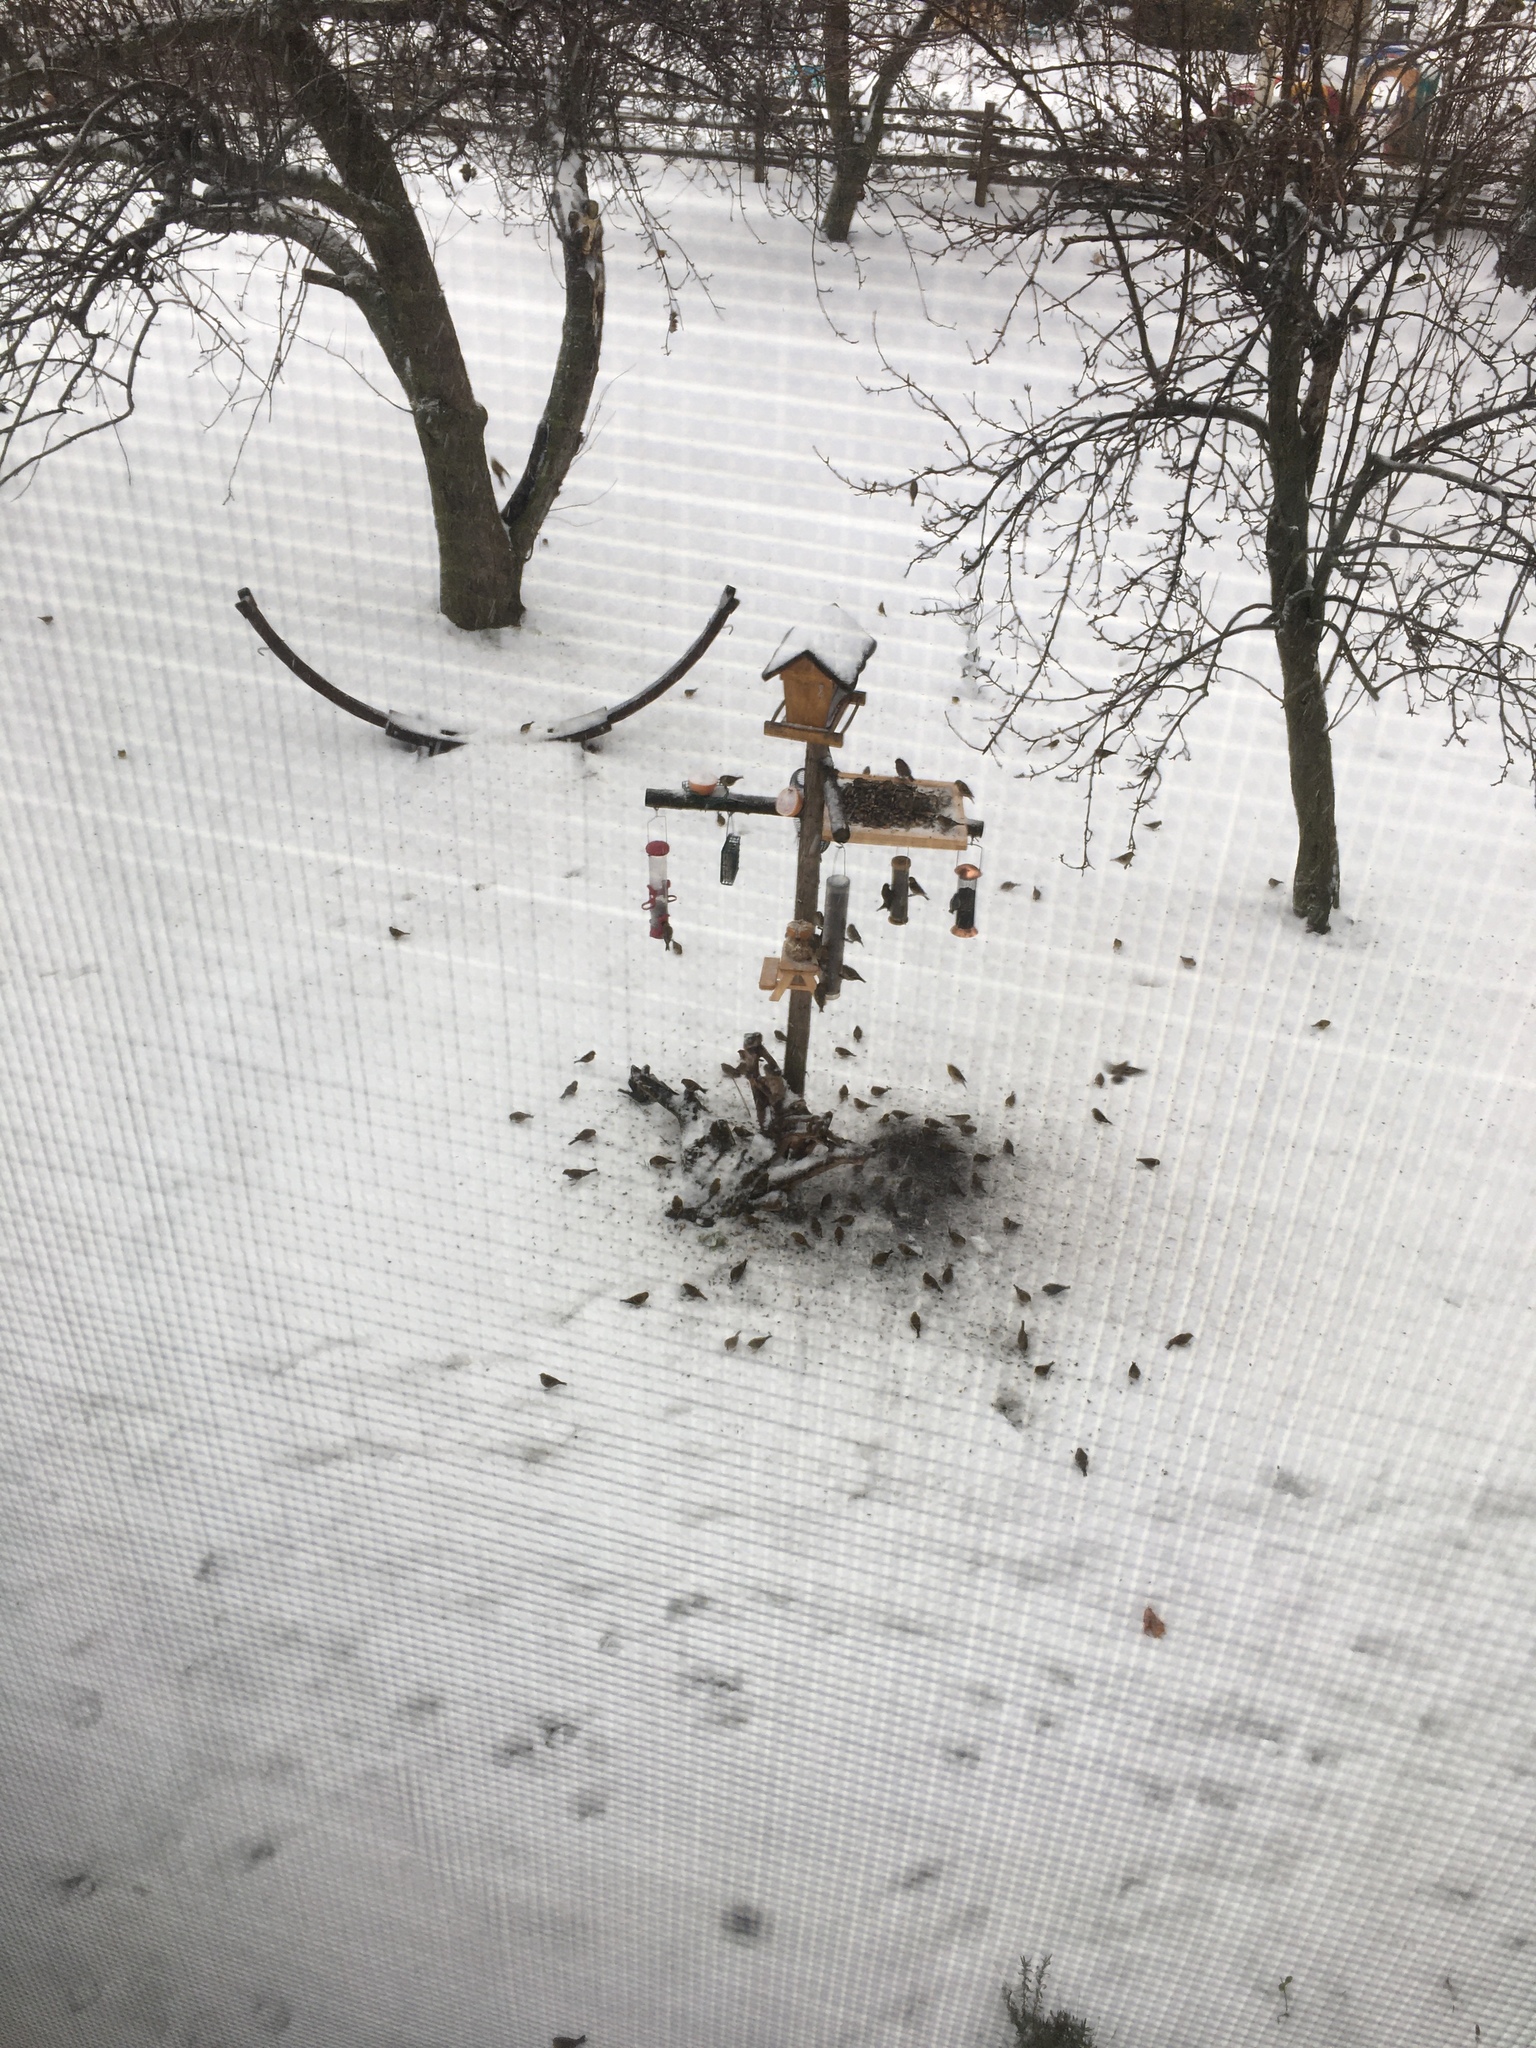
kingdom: Animalia
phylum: Chordata
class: Aves
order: Passeriformes
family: Fringillidae
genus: Spinus
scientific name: Spinus tristis
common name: American goldfinch
